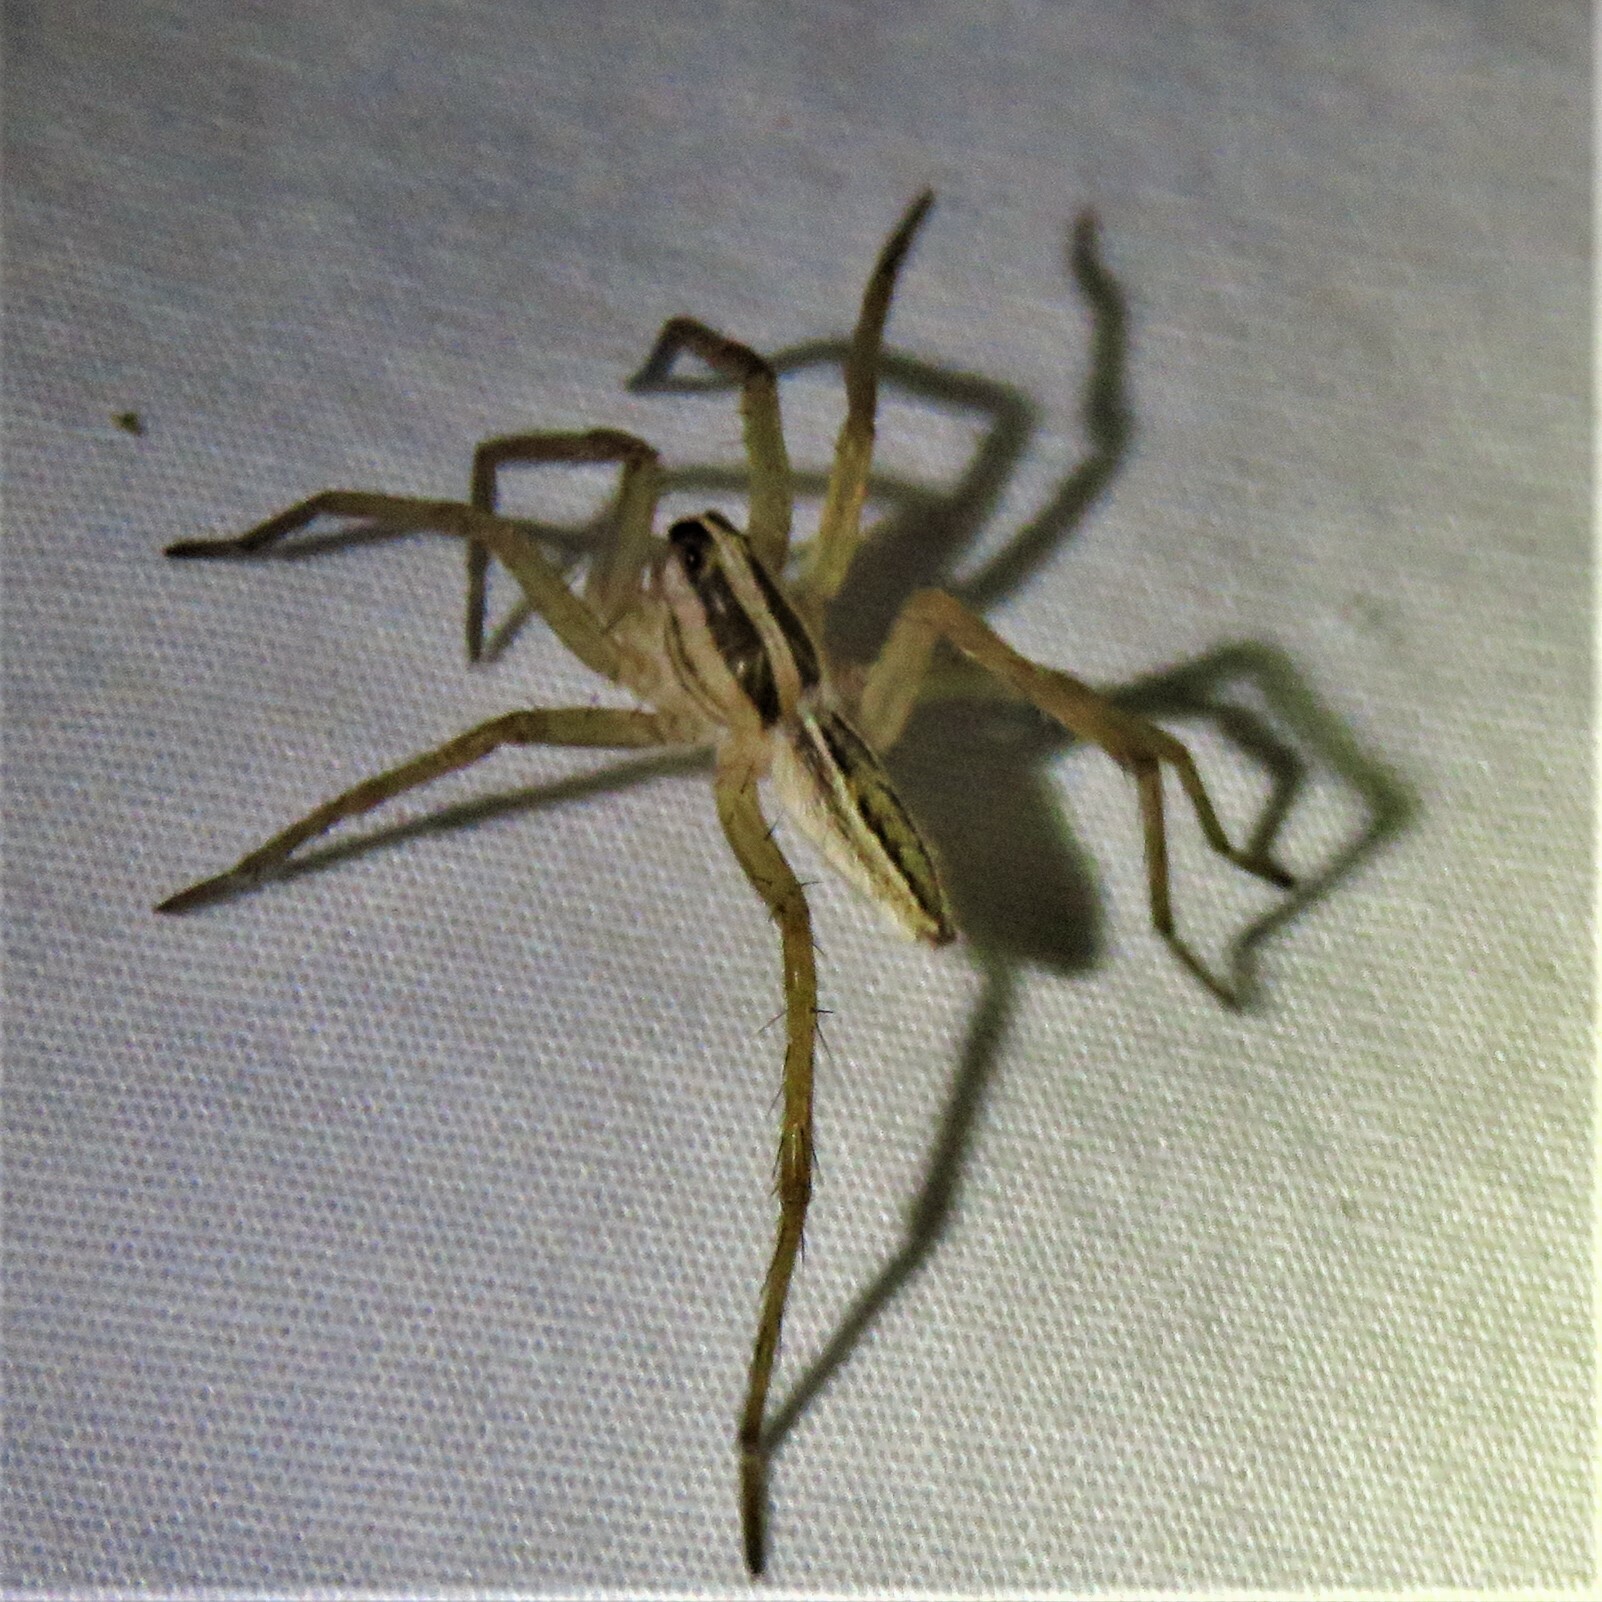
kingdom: Animalia
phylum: Arthropoda
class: Arachnida
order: Araneae
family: Lycosidae
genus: Rabidosa
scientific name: Rabidosa rabida
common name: Rabid wolf spider
